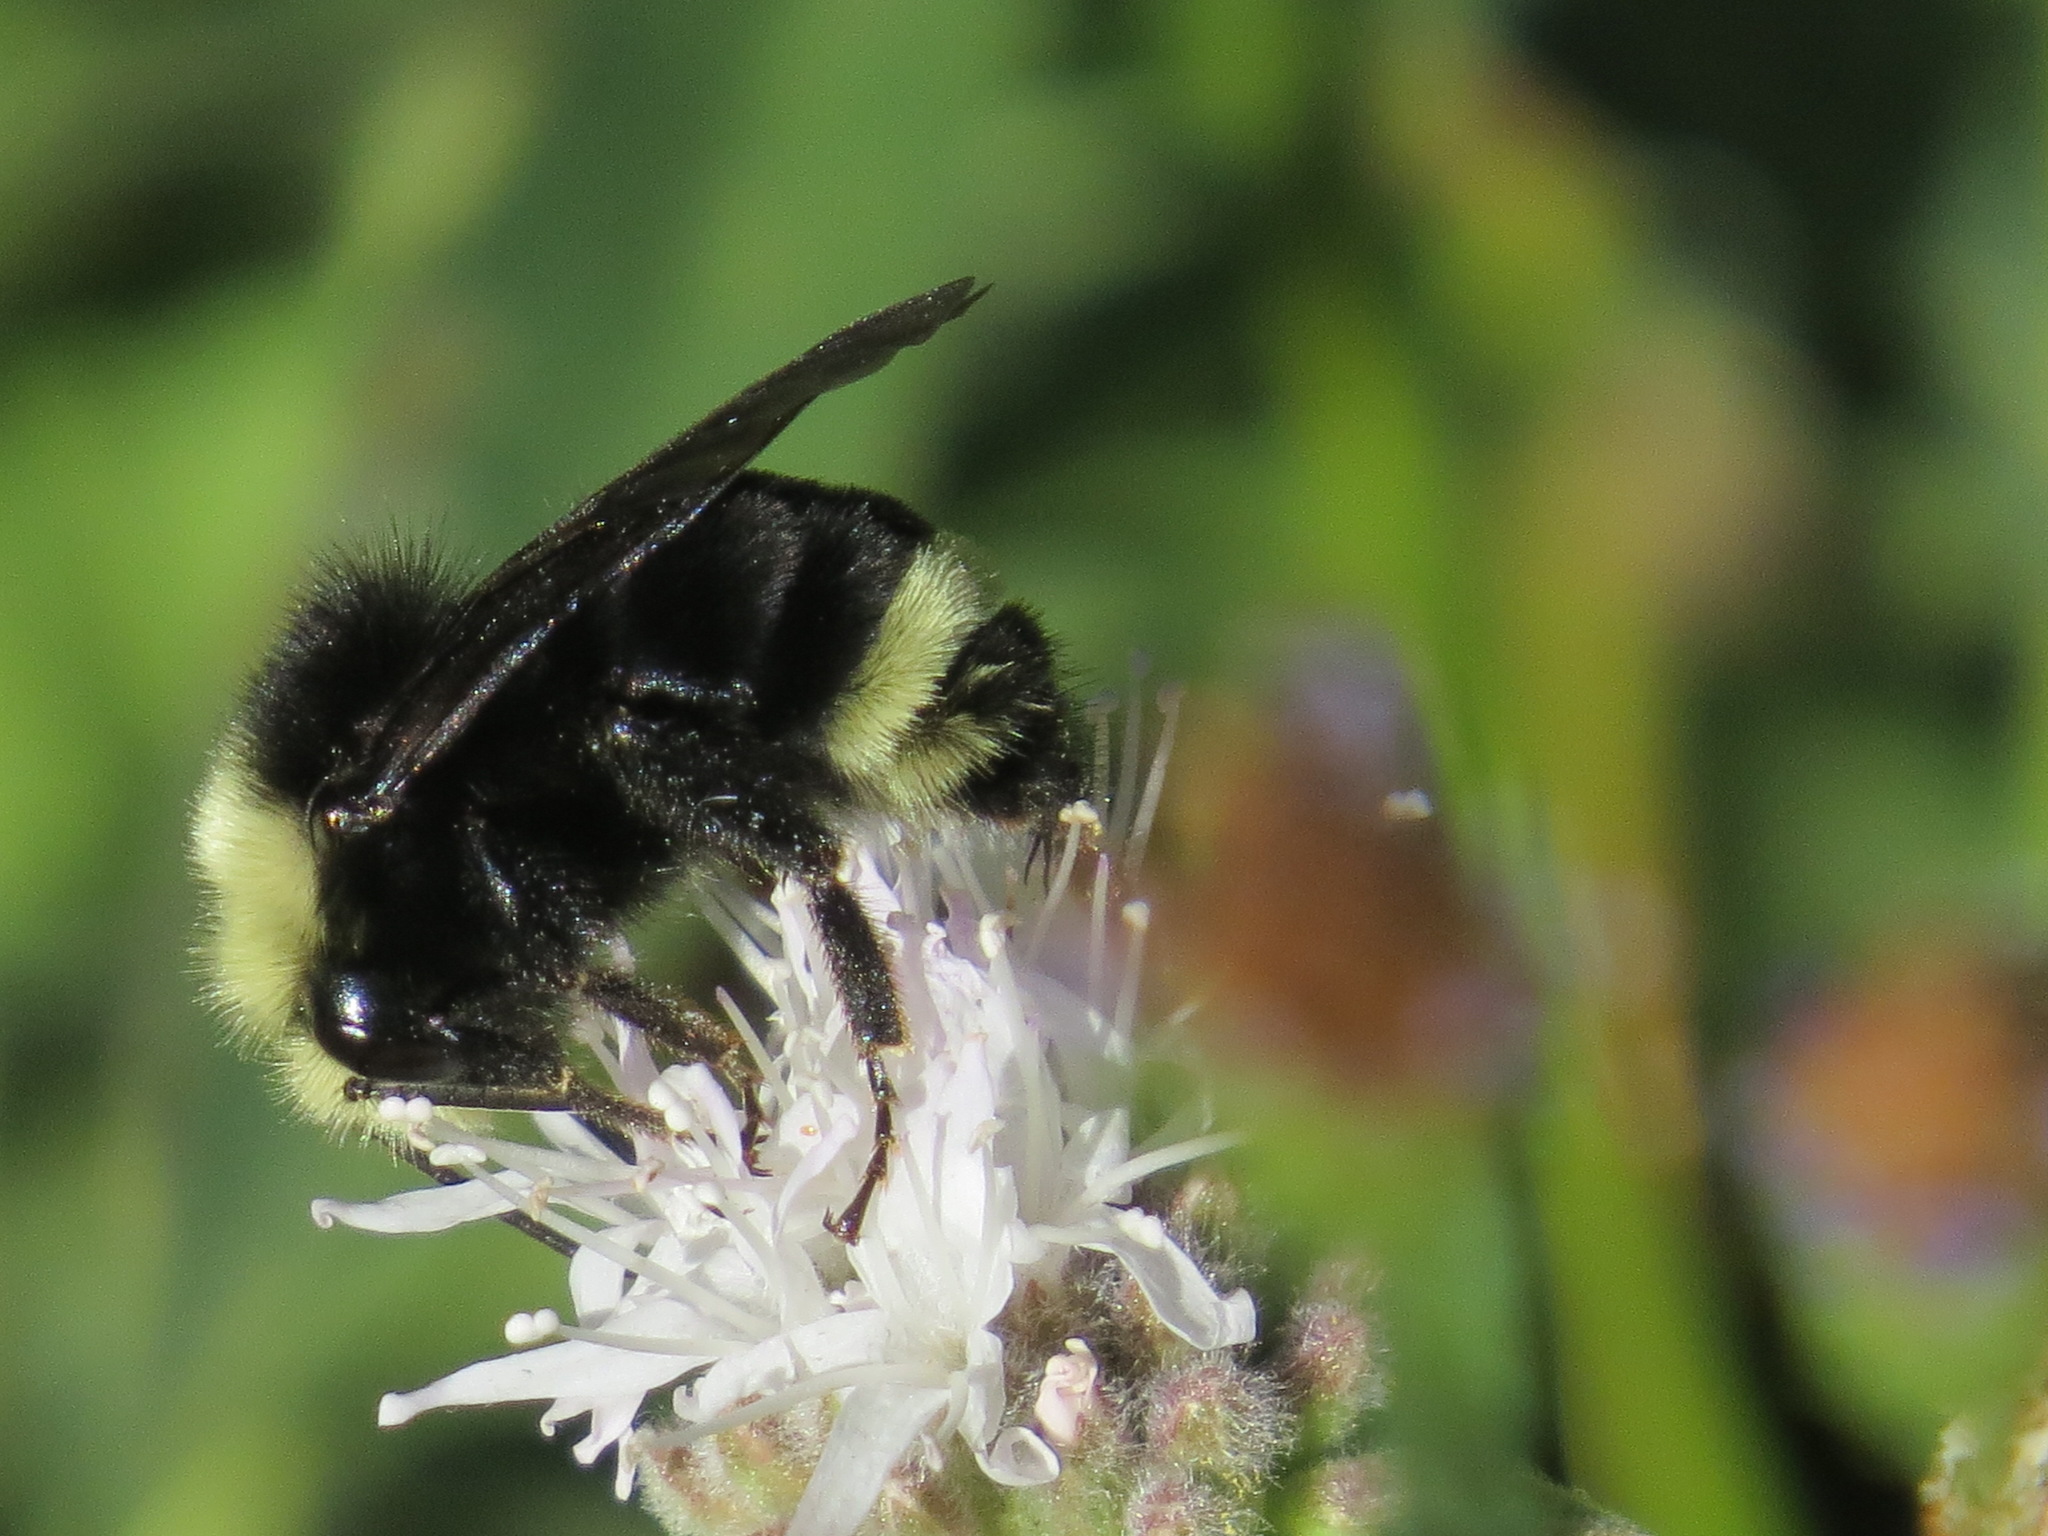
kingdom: Animalia
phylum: Arthropoda
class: Insecta
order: Hymenoptera
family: Apidae
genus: Bombus
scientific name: Bombus vosnesenskii
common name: Vosnesensky bumble bee
